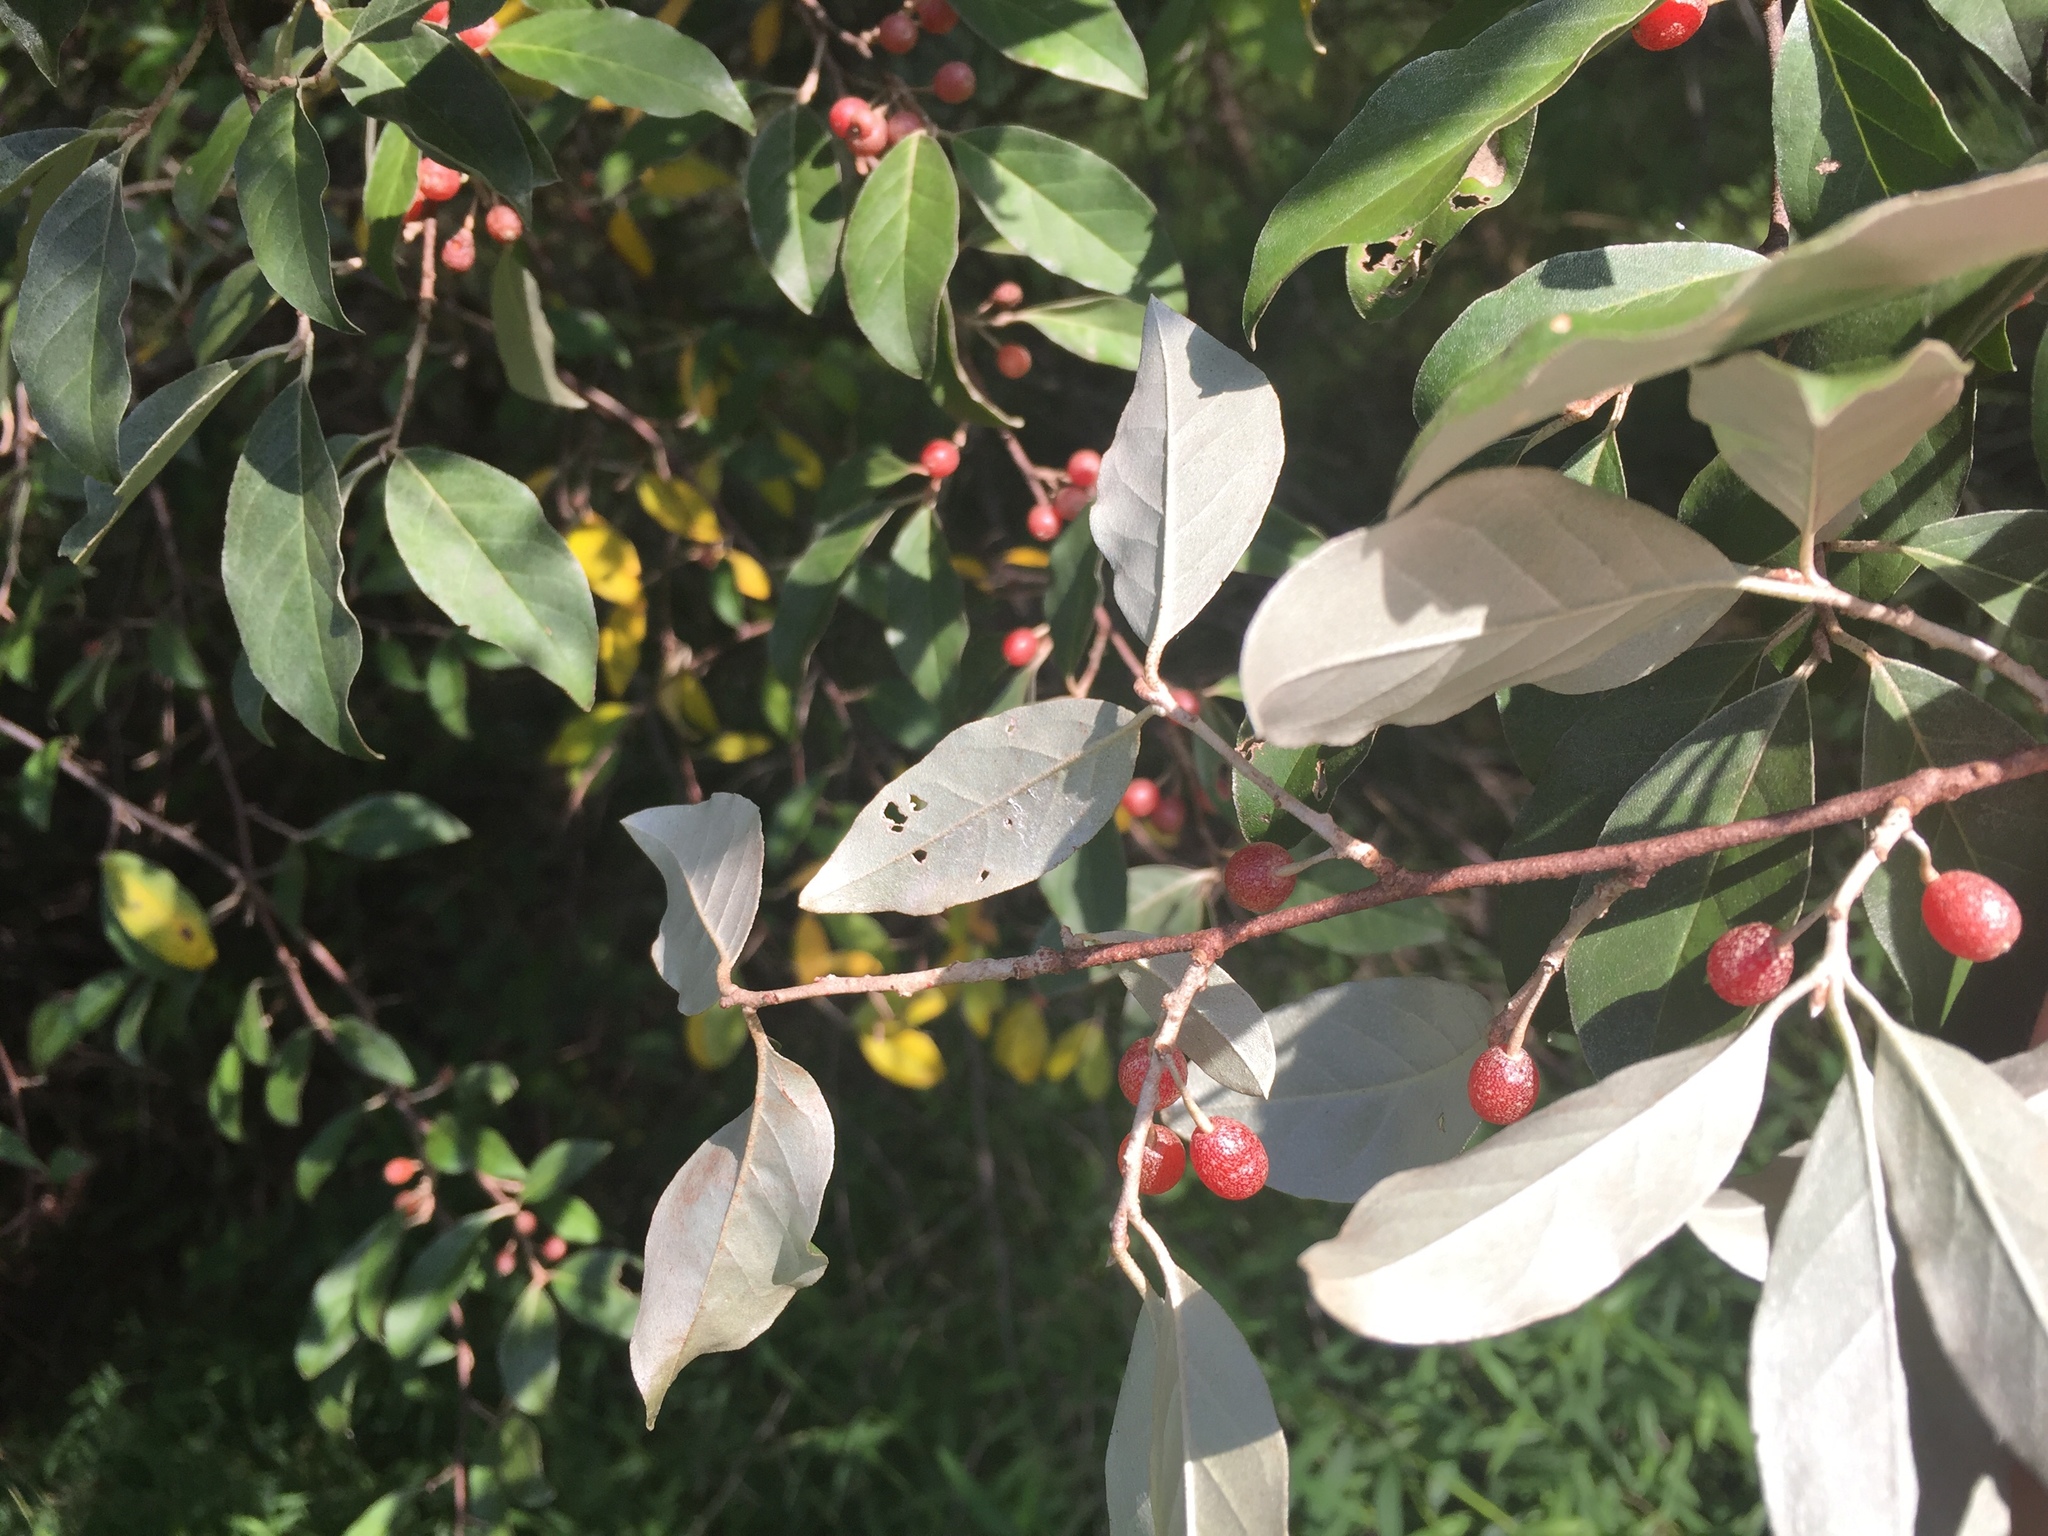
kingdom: Plantae
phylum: Tracheophyta
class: Magnoliopsida
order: Rosales
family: Elaeagnaceae
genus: Elaeagnus
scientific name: Elaeagnus umbellata
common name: Autumn olive
